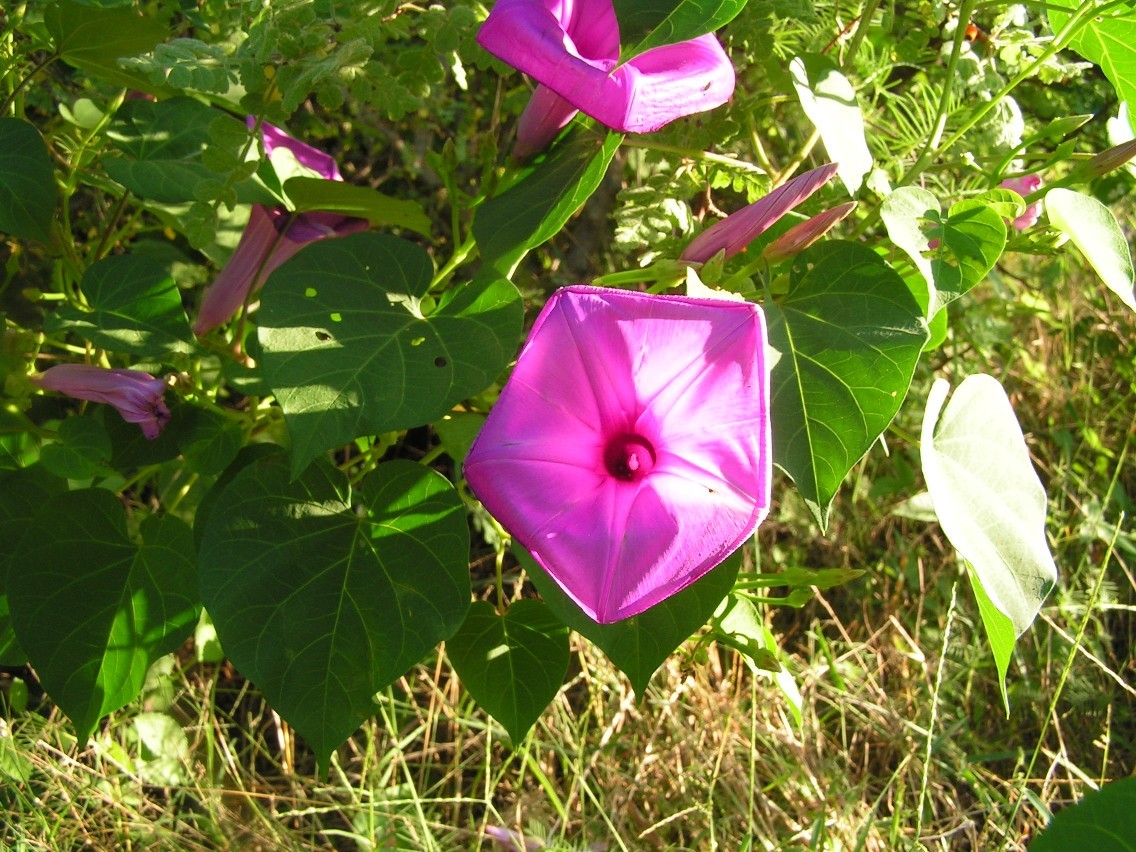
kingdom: Plantae
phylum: Tracheophyta
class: Magnoliopsida
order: Solanales
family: Convolvulaceae
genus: Ipomoea
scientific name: Ipomoea pedicellaris
